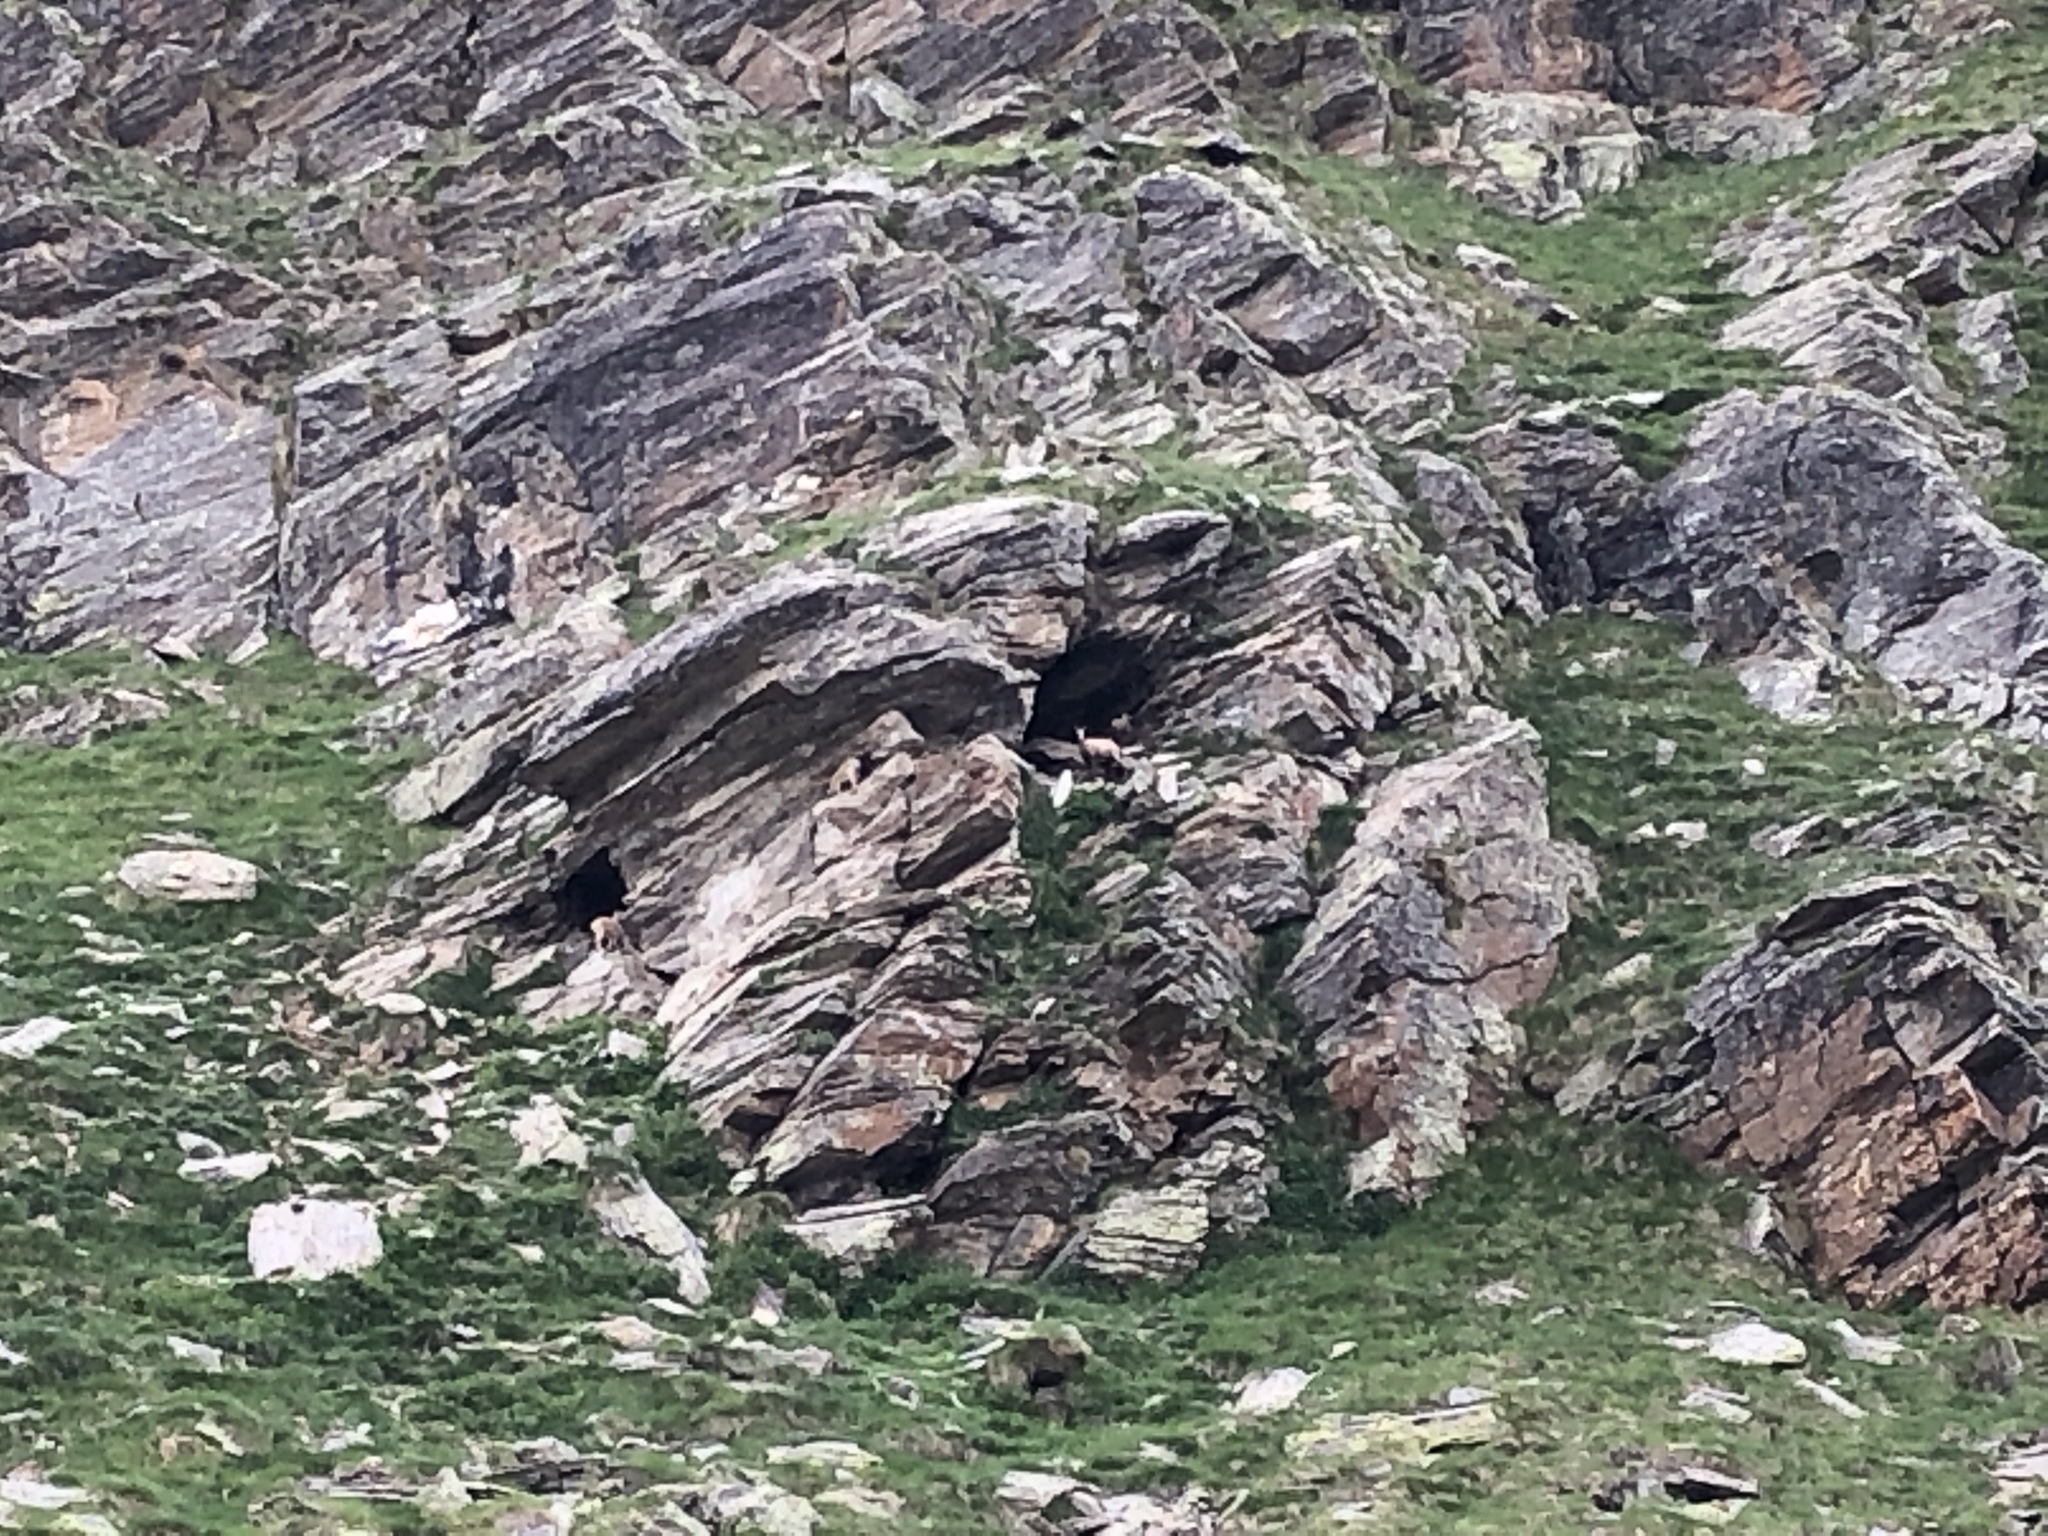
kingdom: Animalia
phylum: Chordata
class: Mammalia
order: Artiodactyla
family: Bovidae
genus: Rupicapra
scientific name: Rupicapra rupicapra
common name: Chamois
